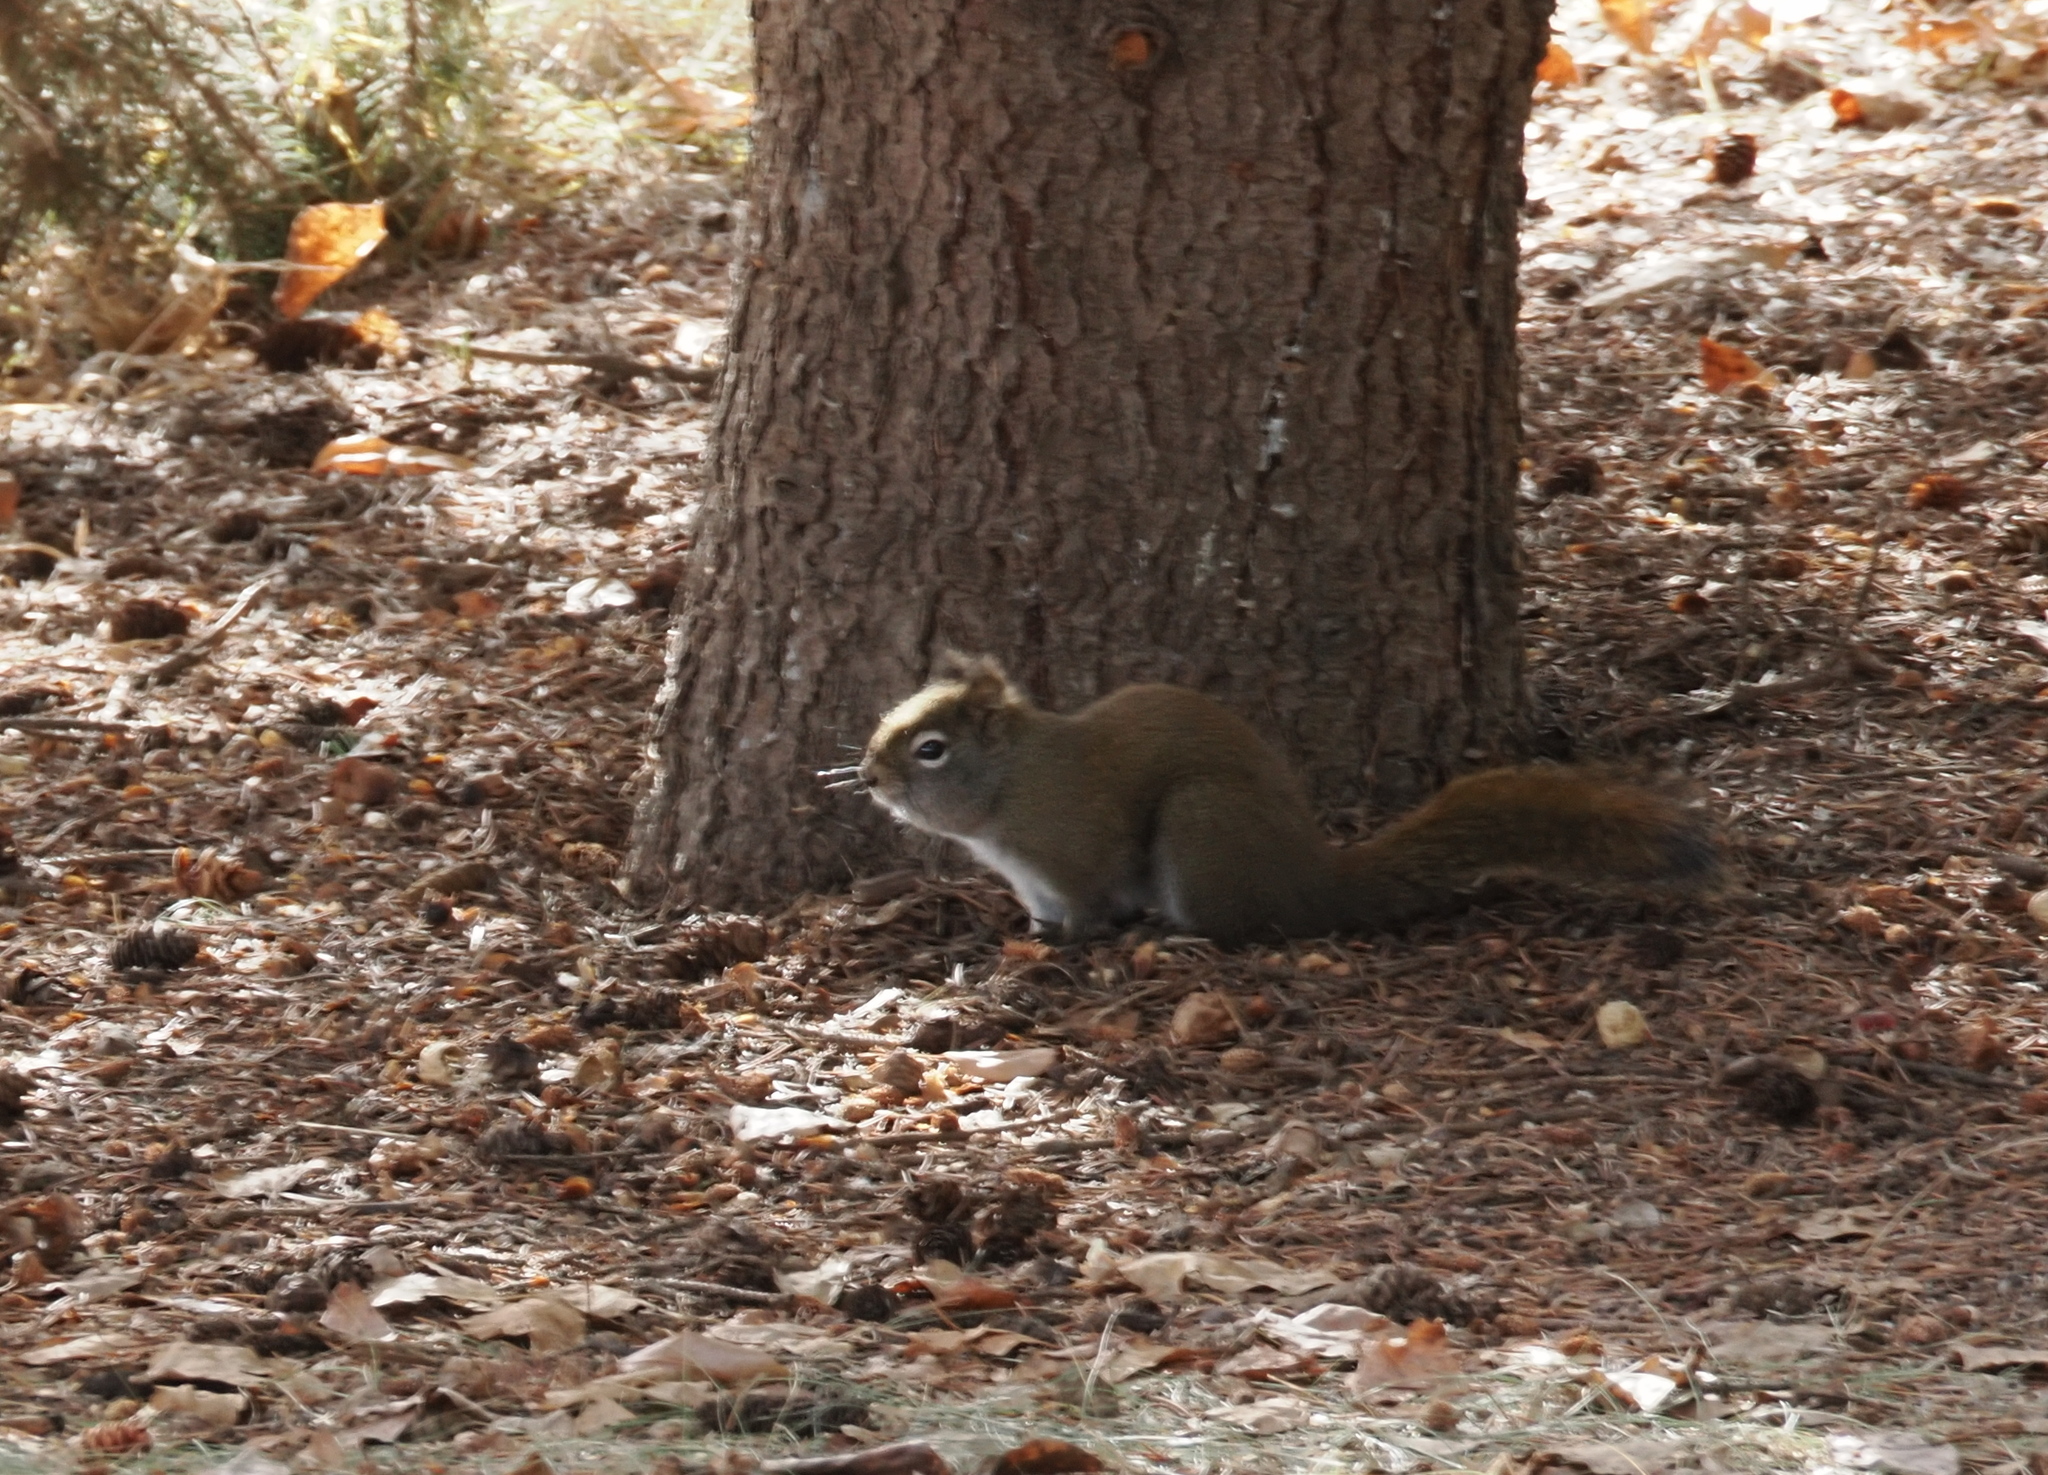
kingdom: Animalia
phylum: Chordata
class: Mammalia
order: Rodentia
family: Sciuridae
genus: Tamiasciurus
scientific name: Tamiasciurus hudsonicus
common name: Red squirrel
